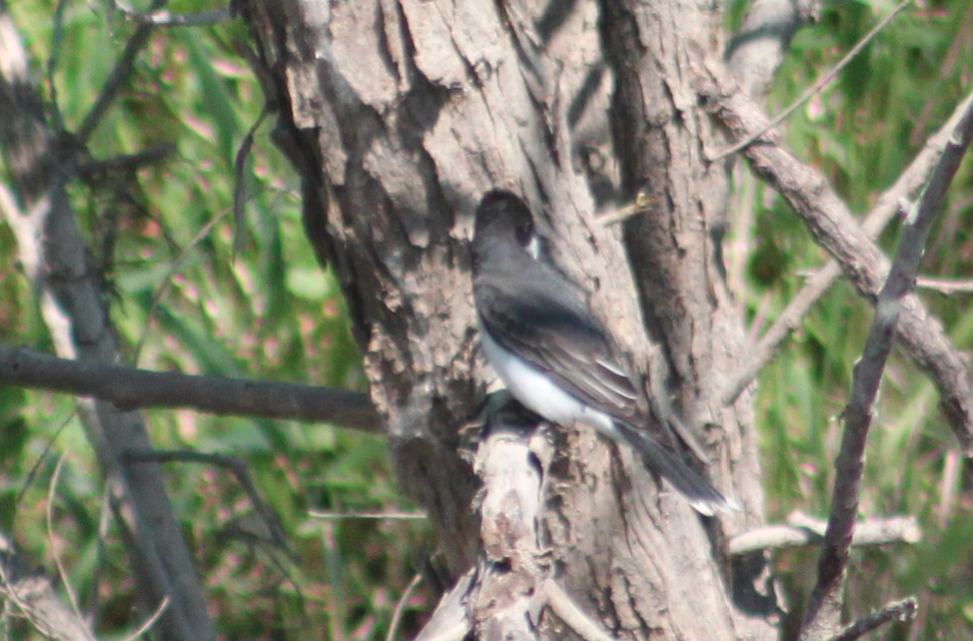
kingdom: Animalia
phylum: Chordata
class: Aves
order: Passeriformes
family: Tyrannidae
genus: Tyrannus
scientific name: Tyrannus tyrannus
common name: Eastern kingbird
